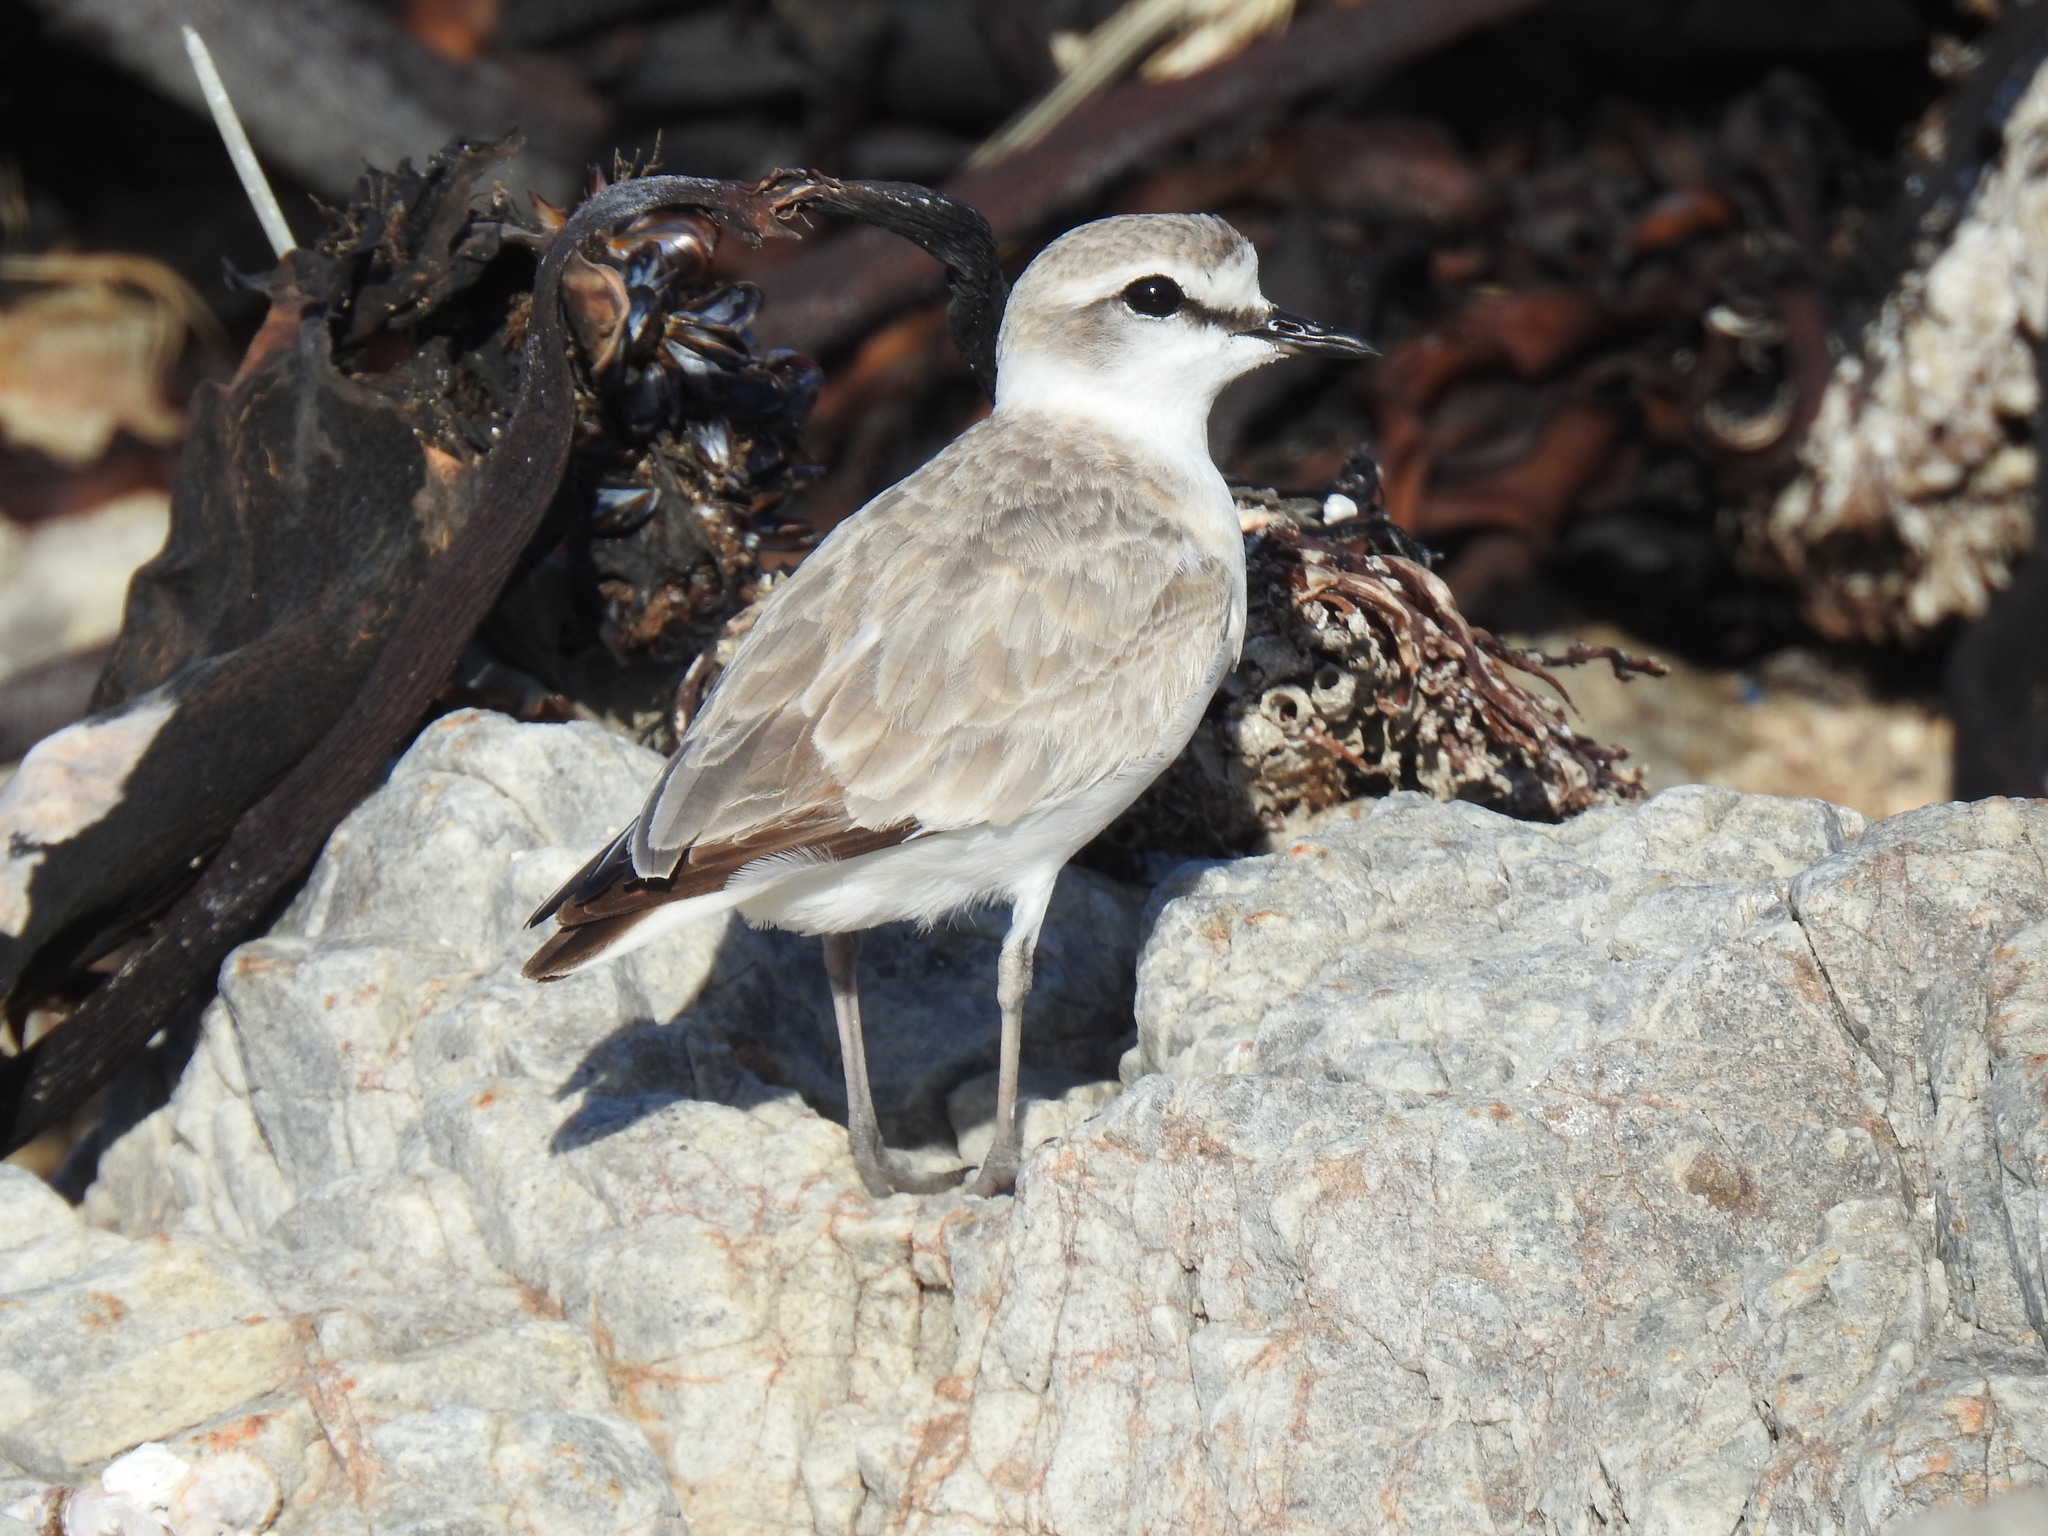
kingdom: Animalia
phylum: Chordata
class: Aves
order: Charadriiformes
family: Charadriidae
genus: Anarhynchus
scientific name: Anarhynchus
